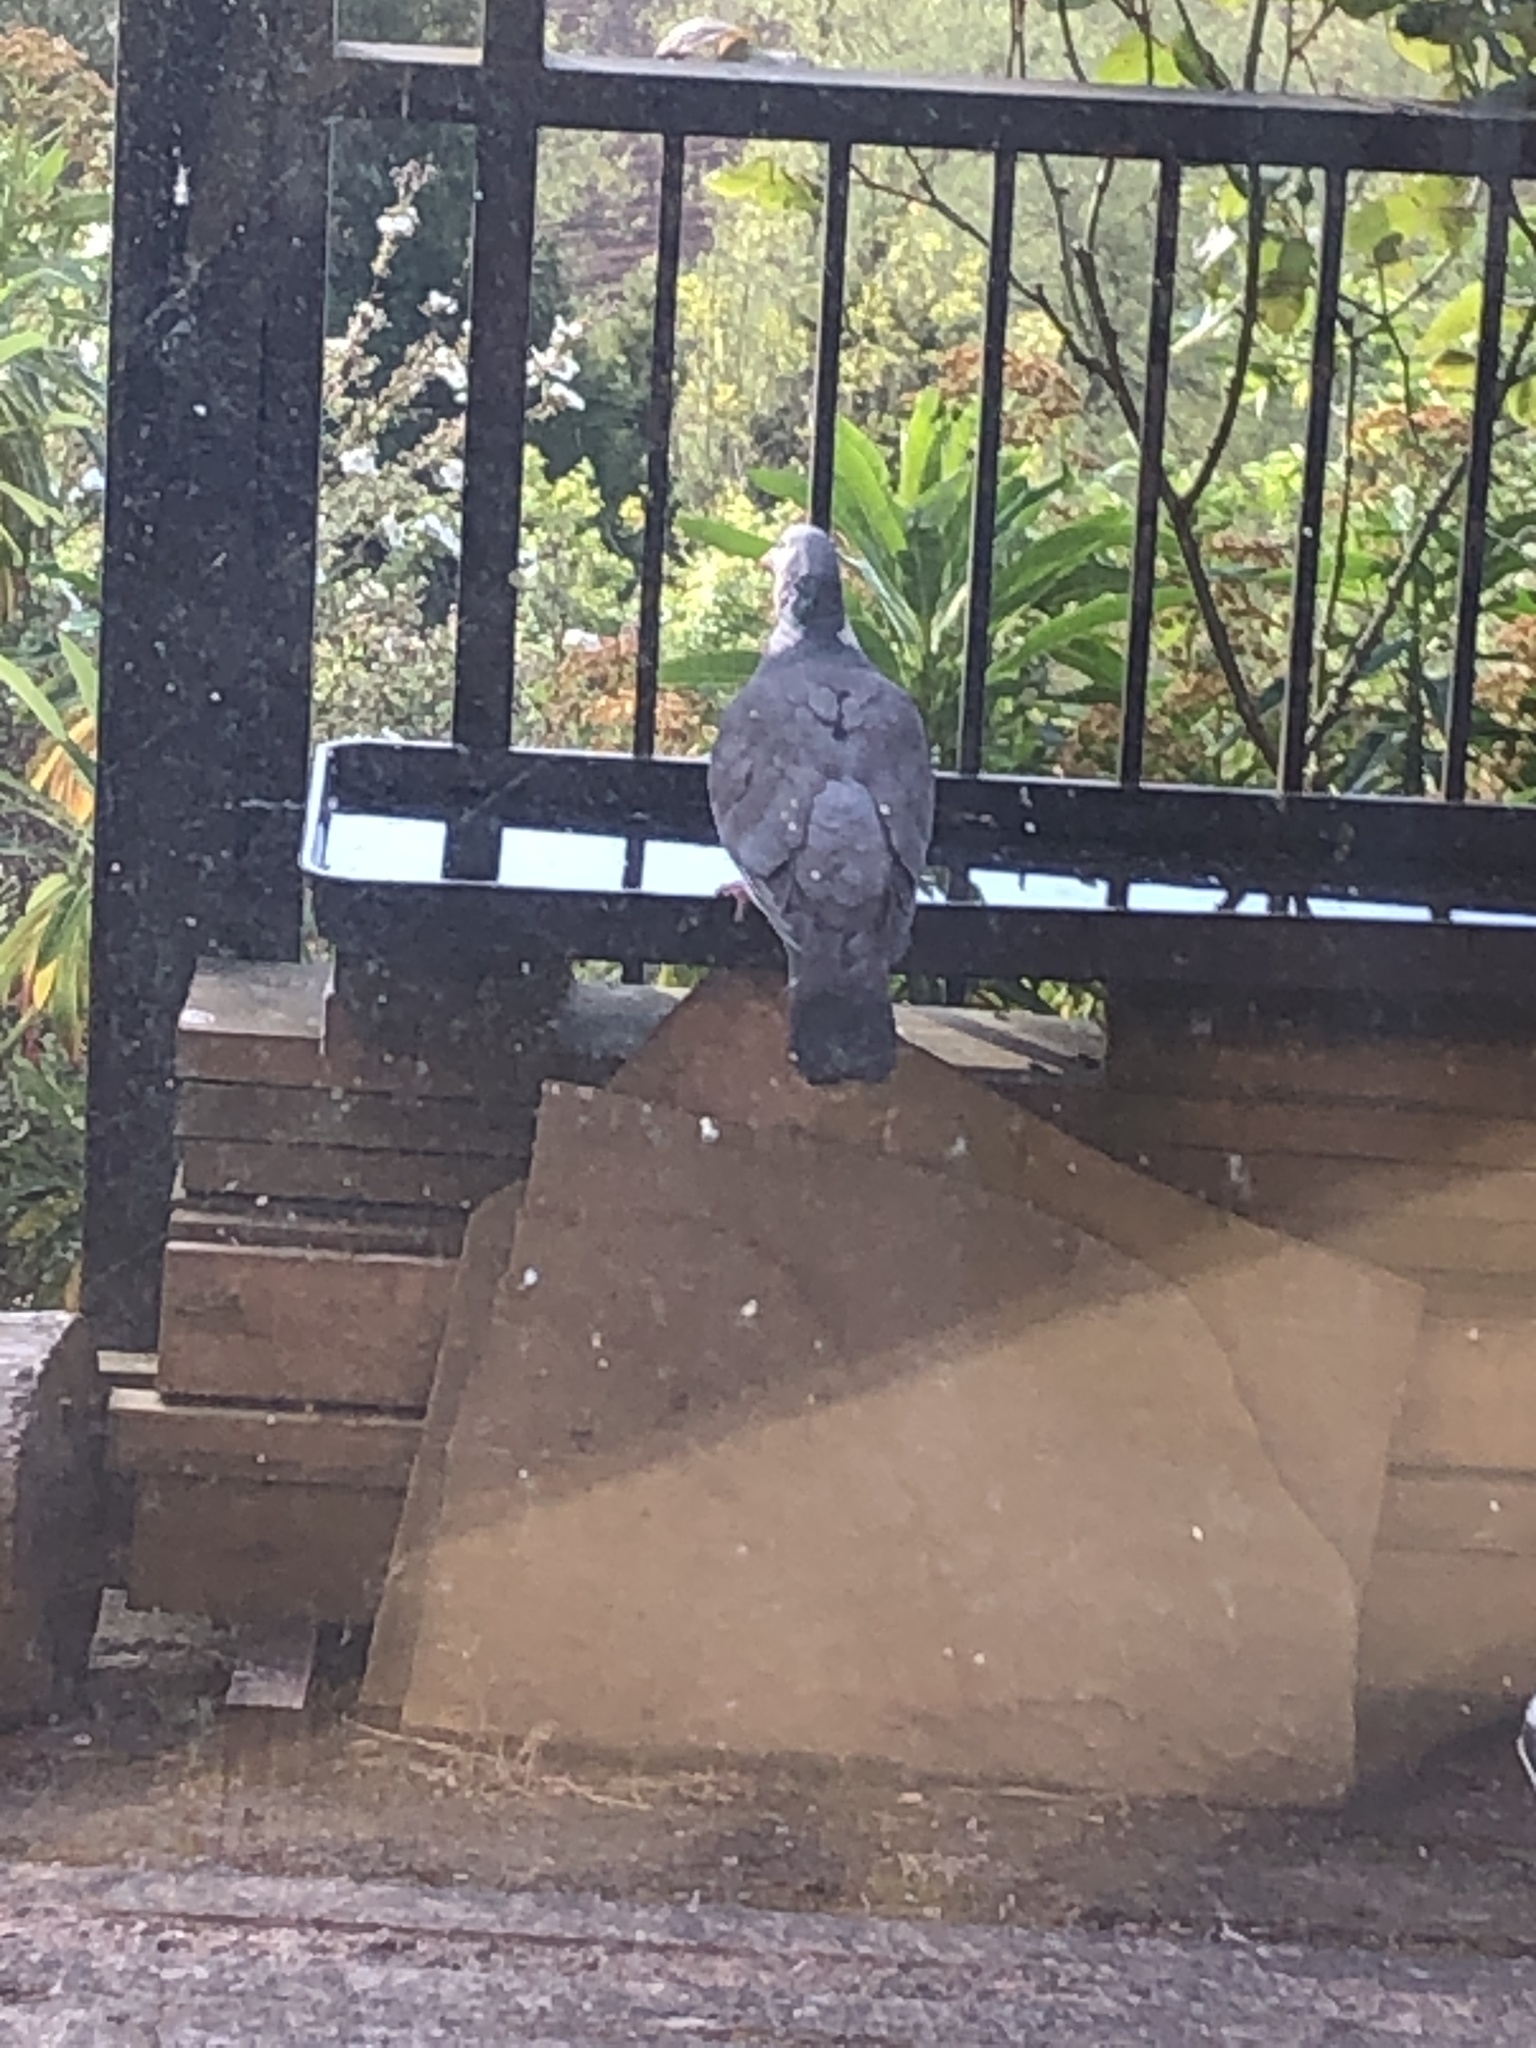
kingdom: Animalia
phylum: Chordata
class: Aves
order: Columbiformes
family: Columbidae
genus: Columba
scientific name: Columba palumbus
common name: Common wood pigeon
